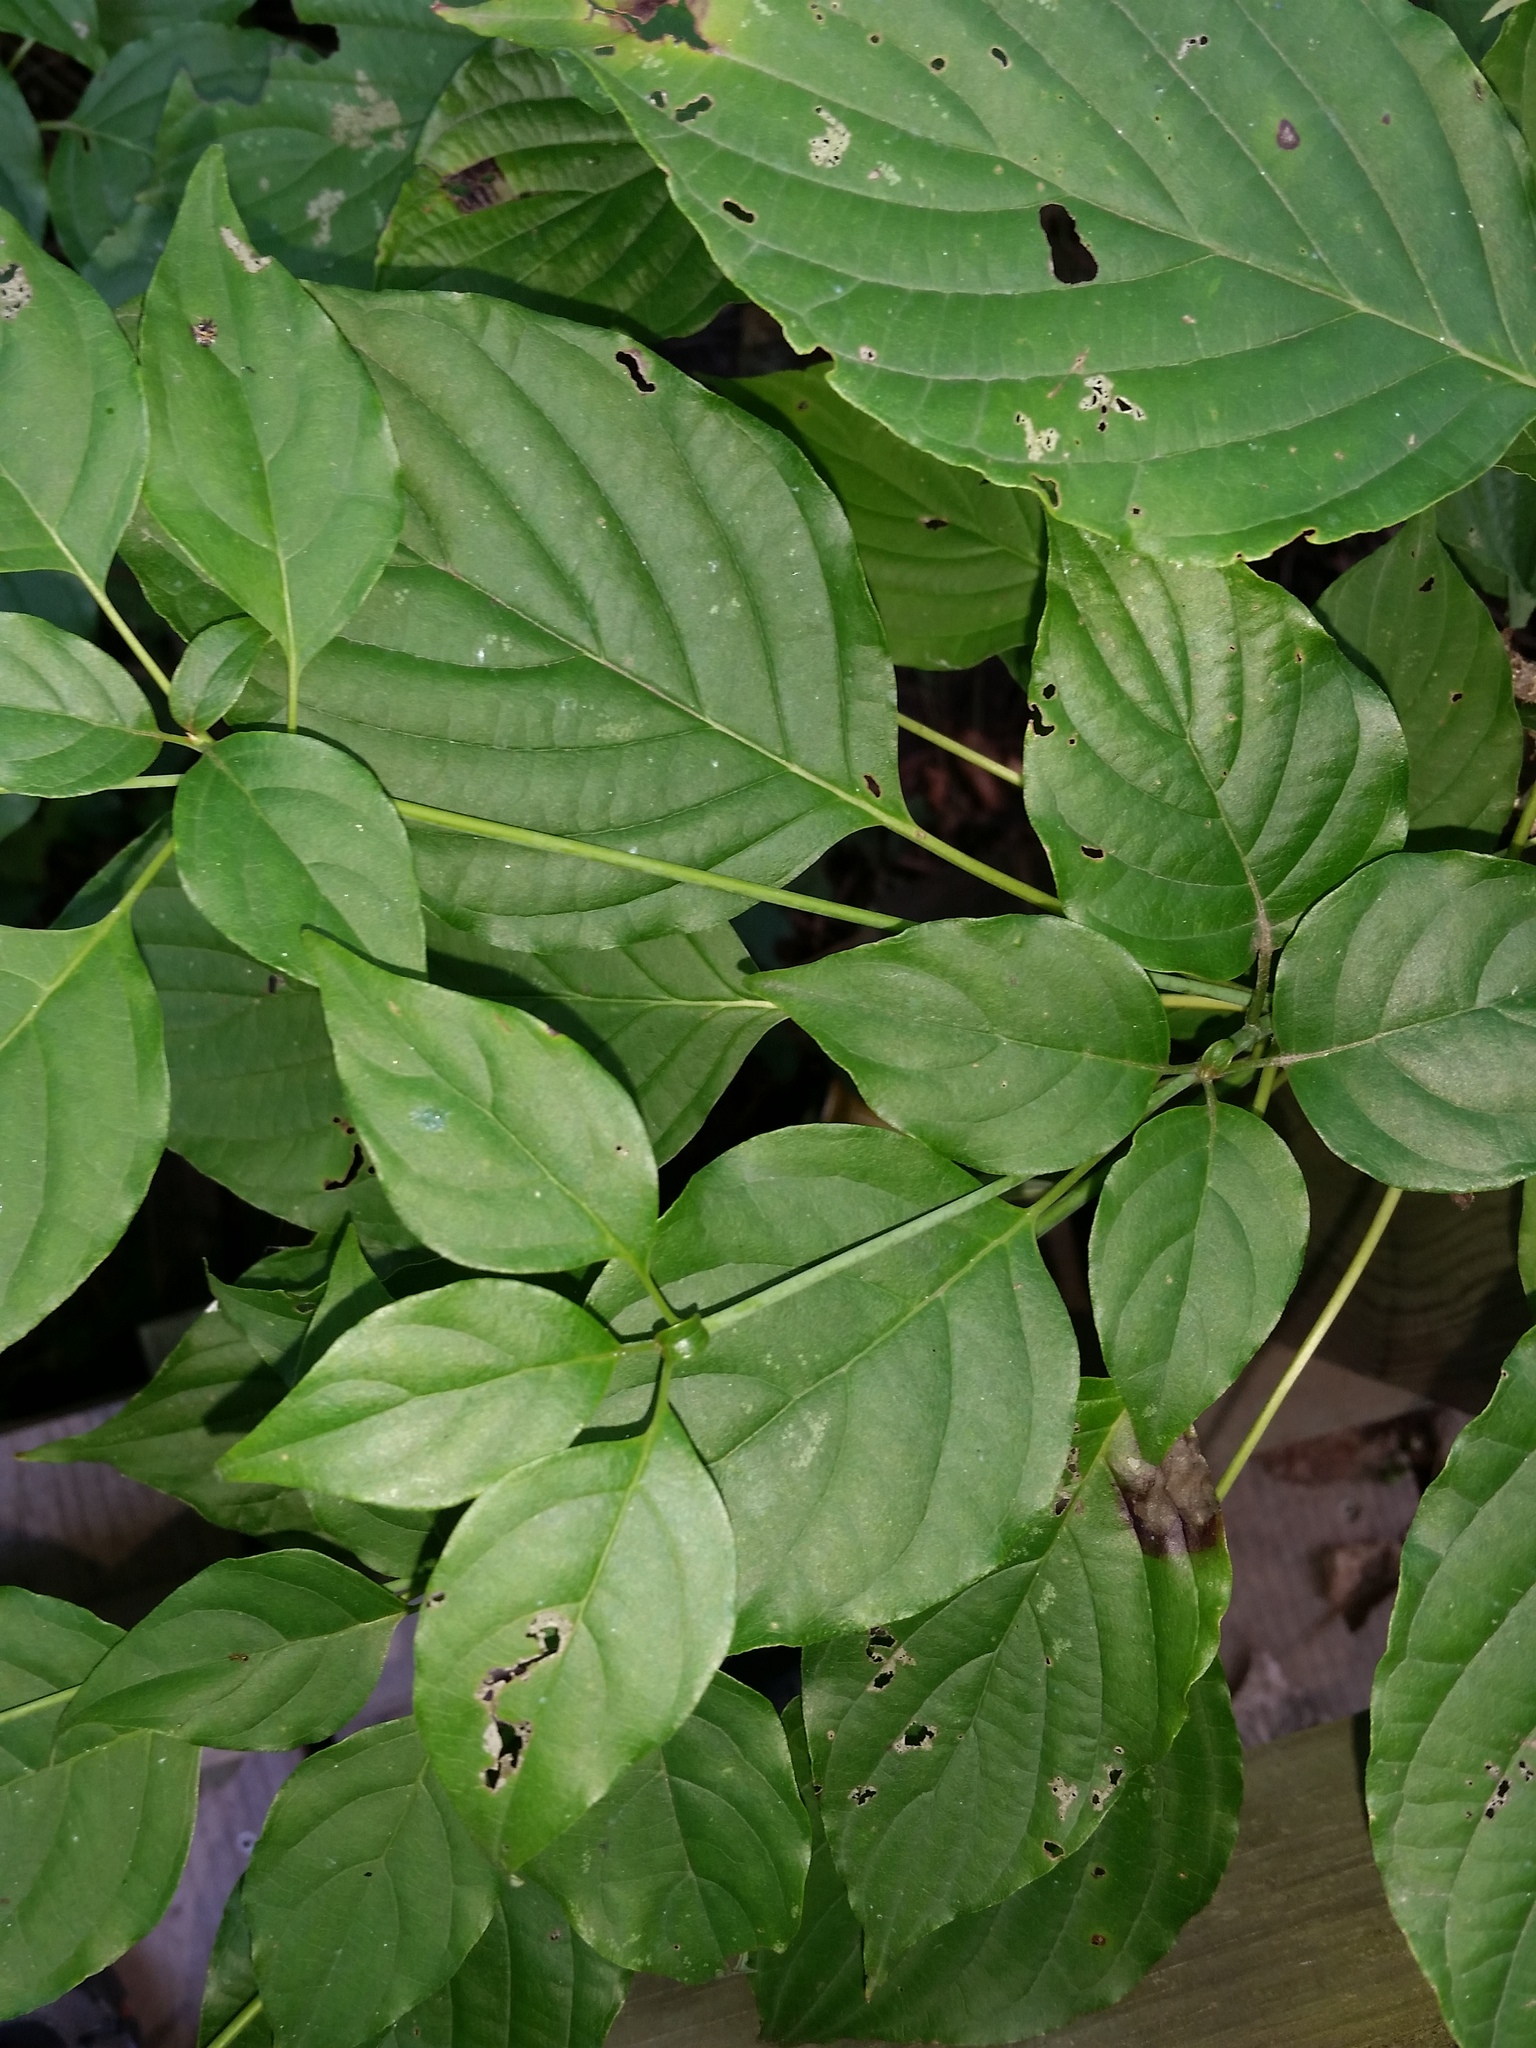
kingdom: Plantae
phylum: Tracheophyta
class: Magnoliopsida
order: Cornales
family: Cornaceae
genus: Cornus
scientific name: Cornus alternifolia
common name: Pagoda dogwood
